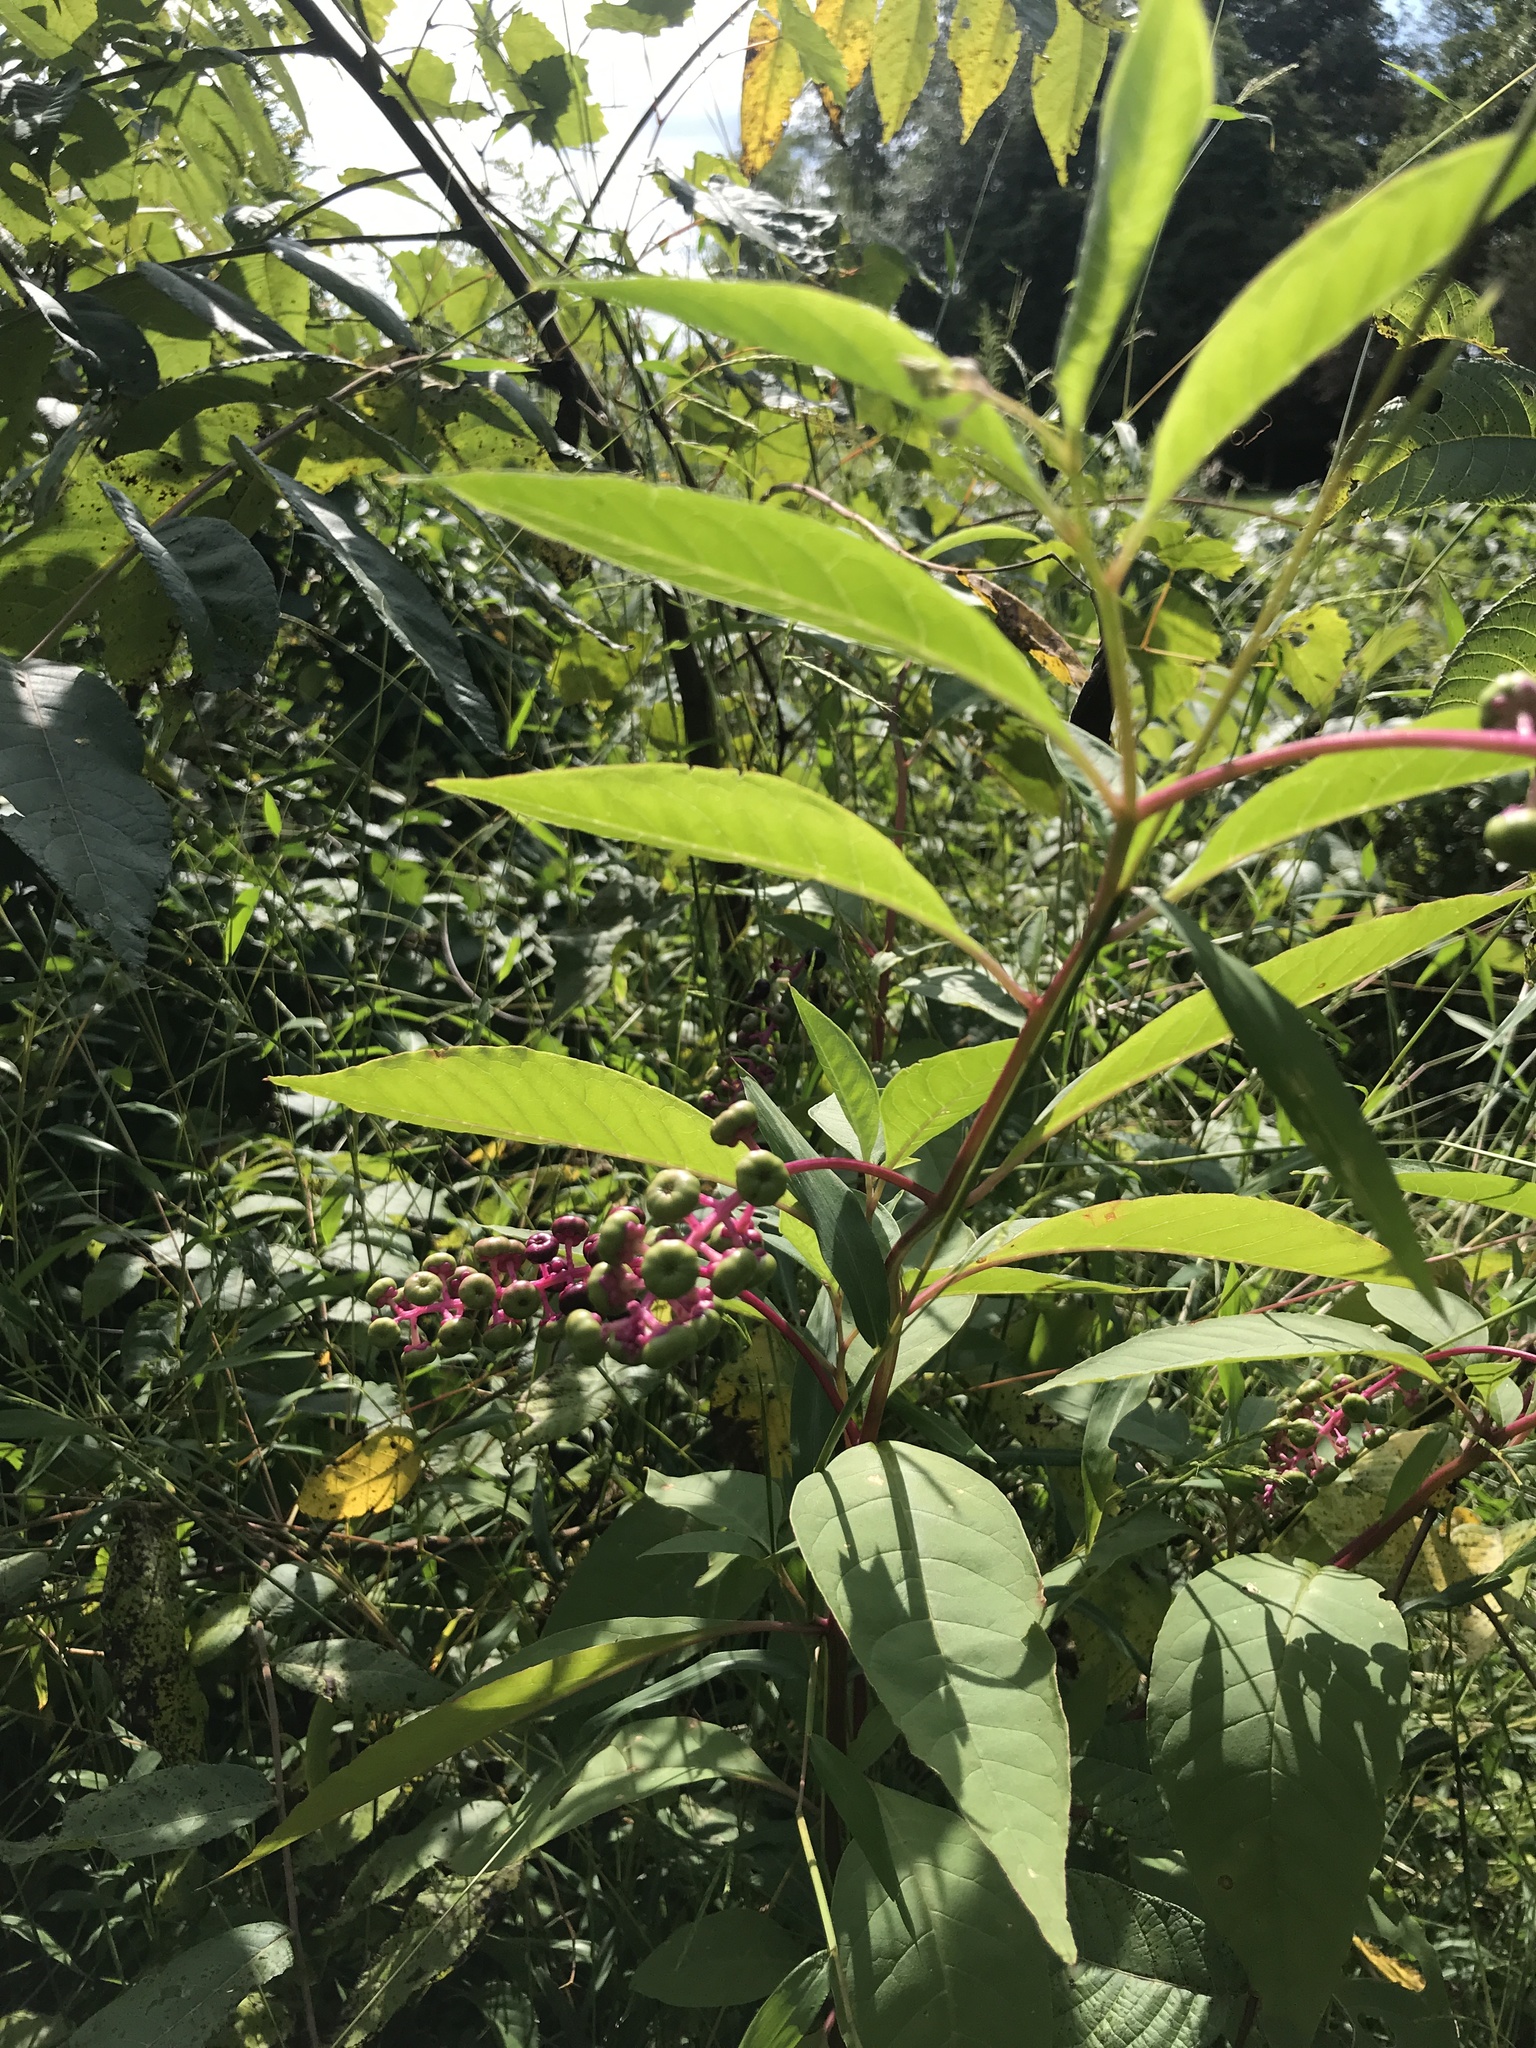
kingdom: Plantae
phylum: Tracheophyta
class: Magnoliopsida
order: Caryophyllales
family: Phytolaccaceae
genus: Phytolacca
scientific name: Phytolacca americana
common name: American pokeweed
